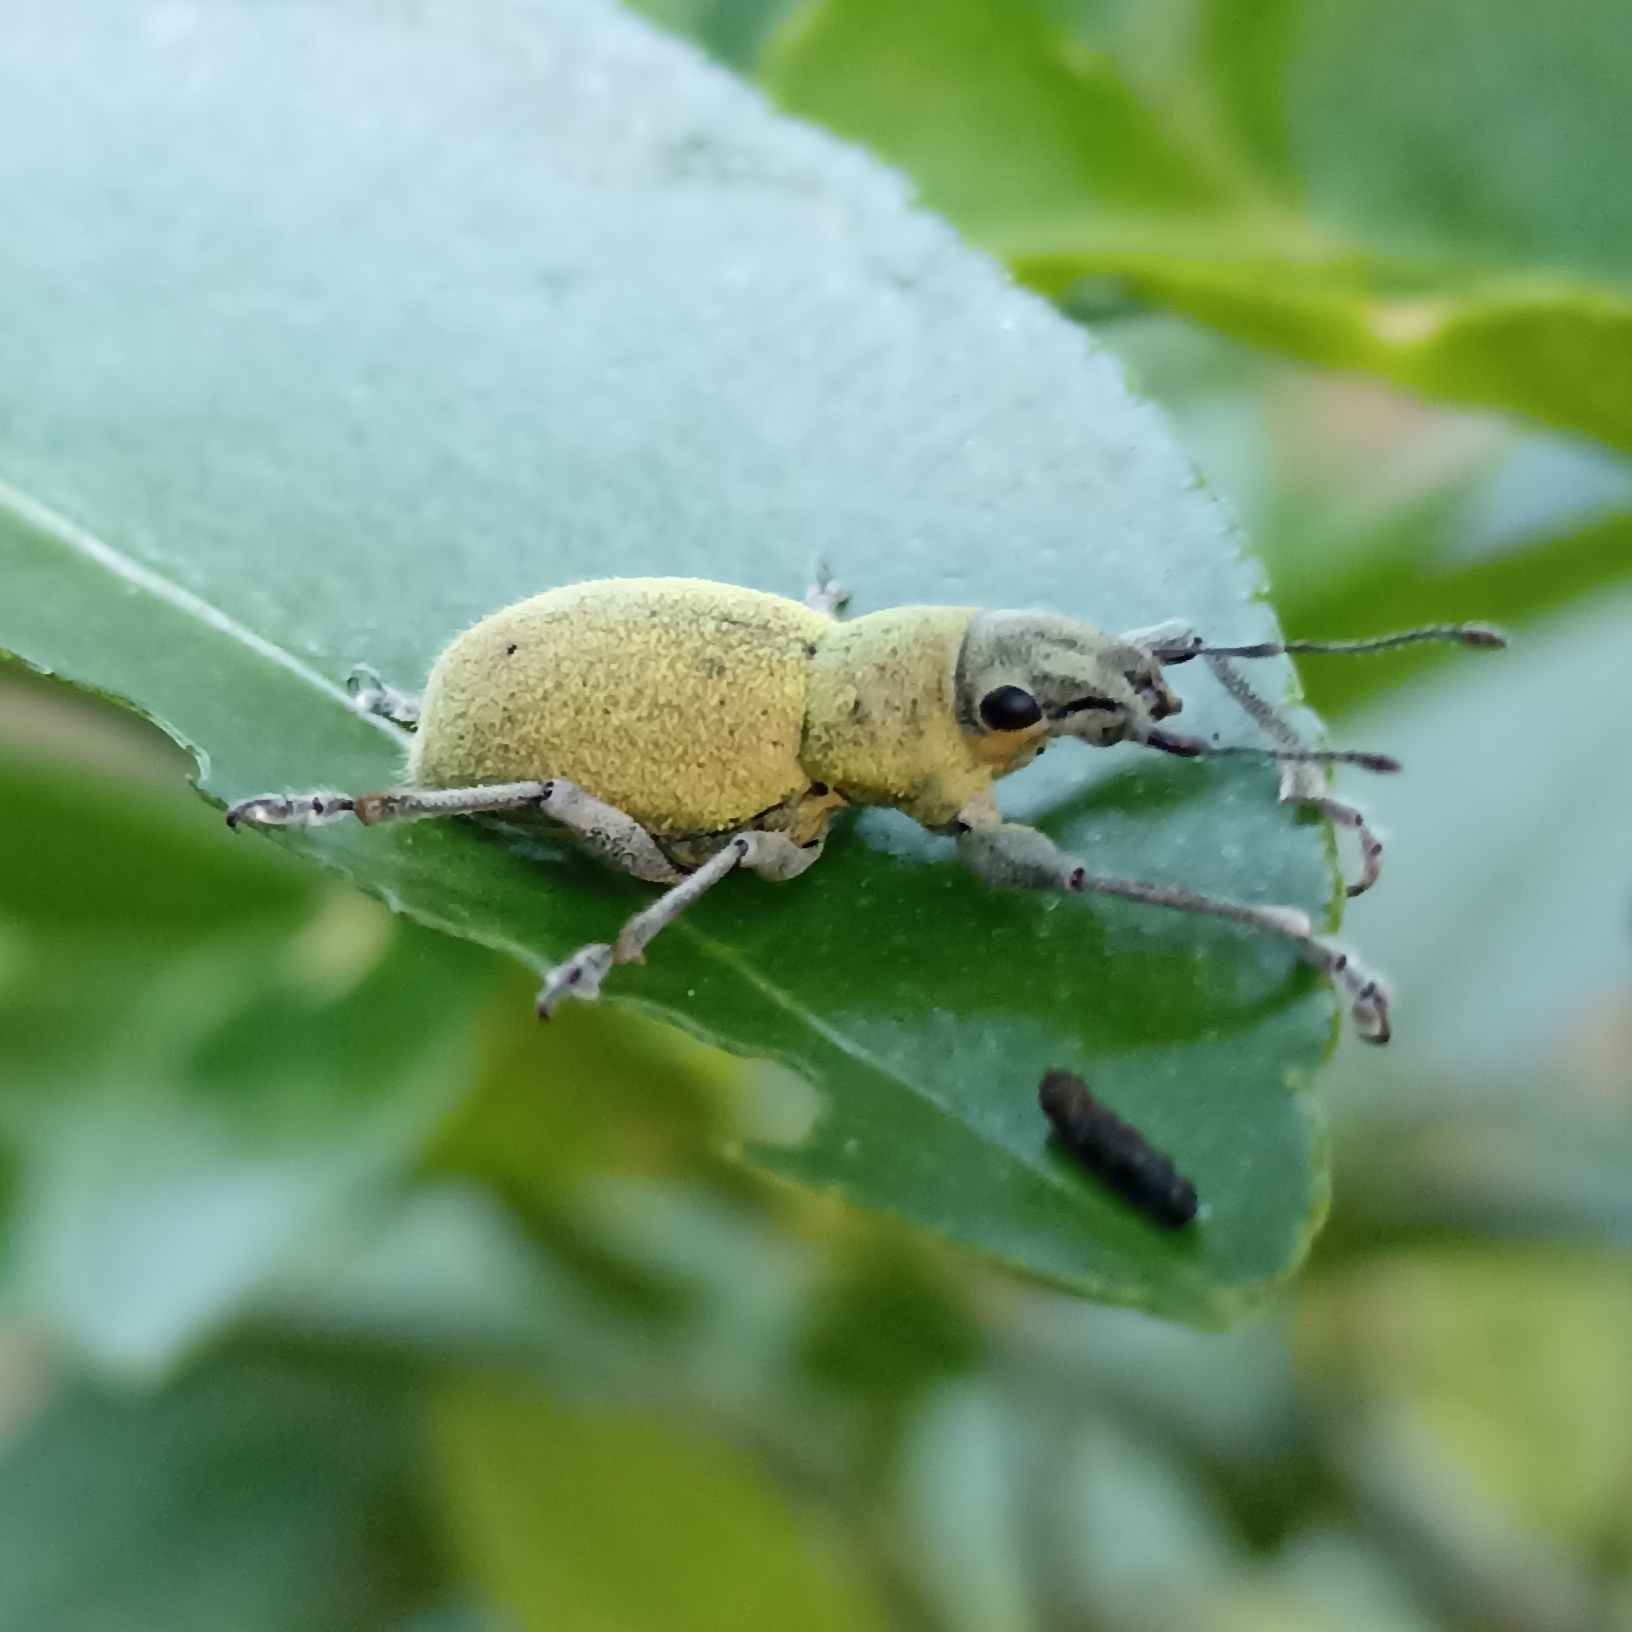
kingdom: Animalia
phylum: Arthropoda
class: Insecta
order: Coleoptera
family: Curculionidae
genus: Naupactus
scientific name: Naupactus
